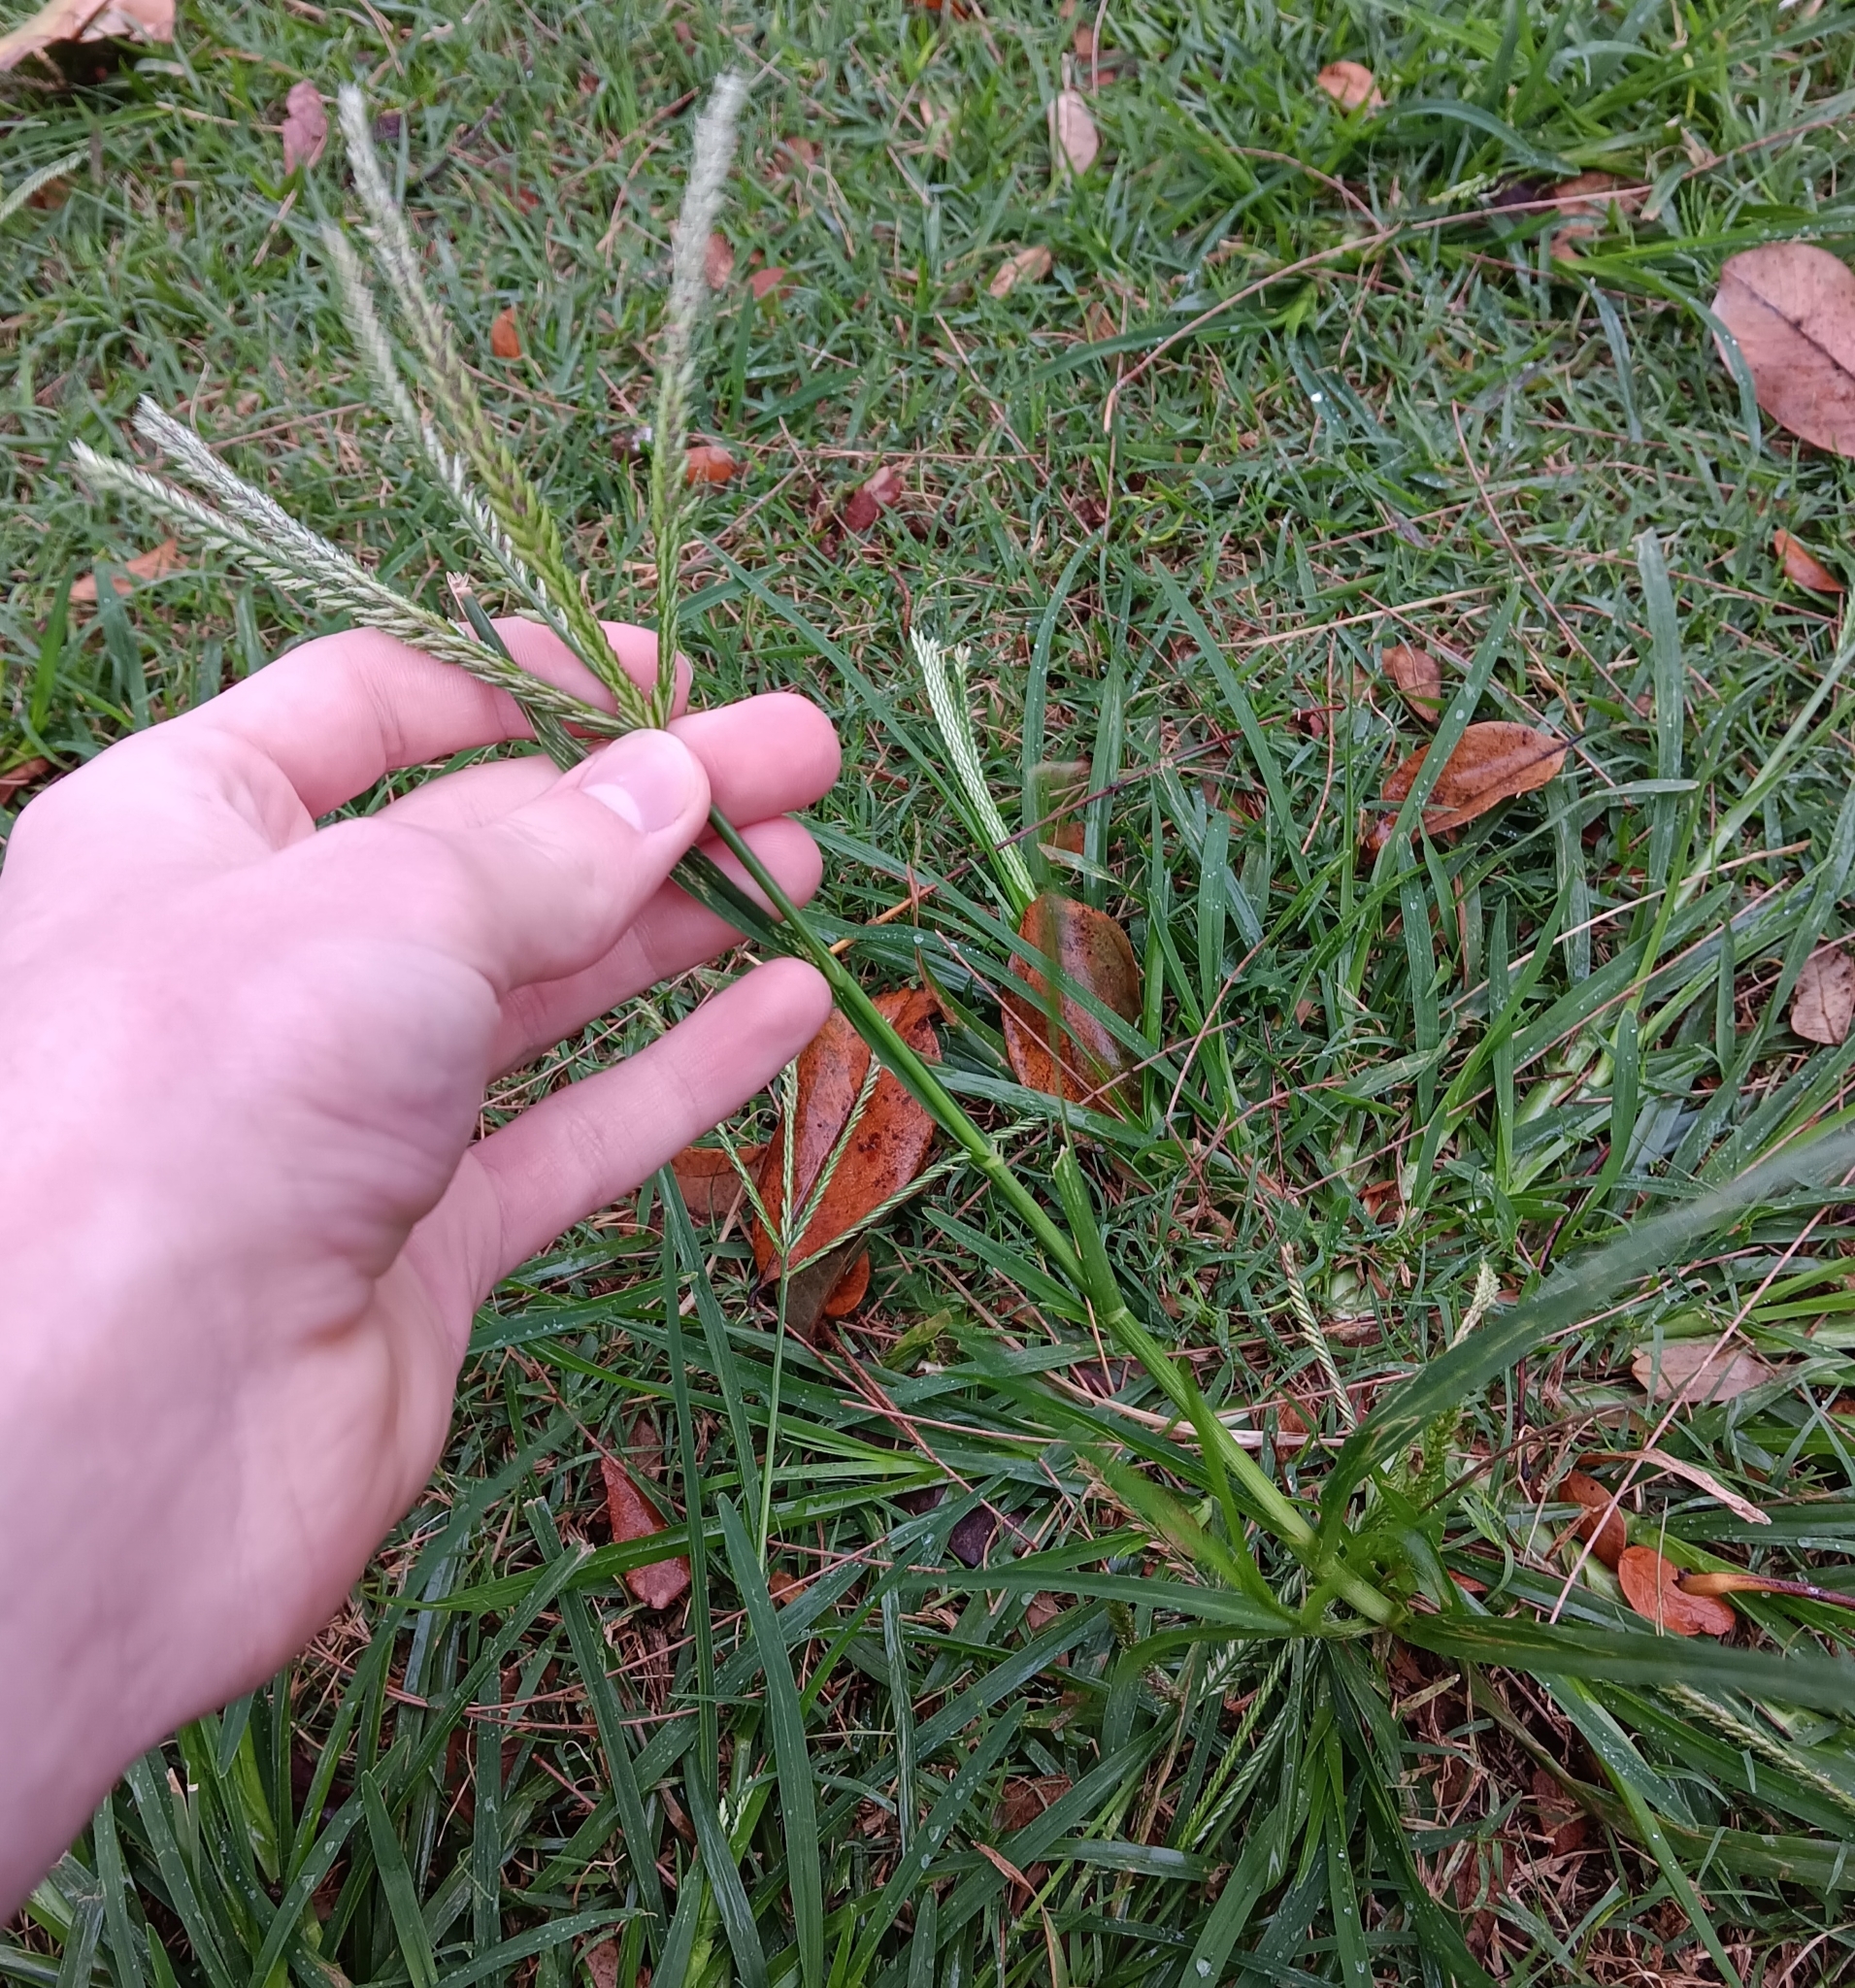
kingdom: Plantae
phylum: Tracheophyta
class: Liliopsida
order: Poales
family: Poaceae
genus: Eleusine
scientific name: Eleusine indica
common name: Yard-grass
